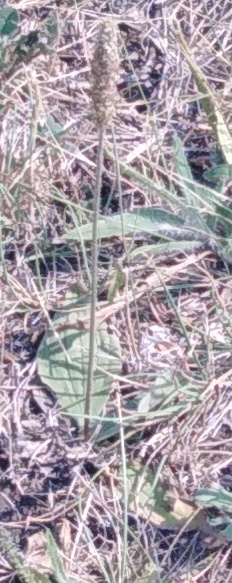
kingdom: Plantae
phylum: Tracheophyta
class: Magnoliopsida
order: Lamiales
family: Plantaginaceae
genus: Plantago
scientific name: Plantago media
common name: Hoary plantain
